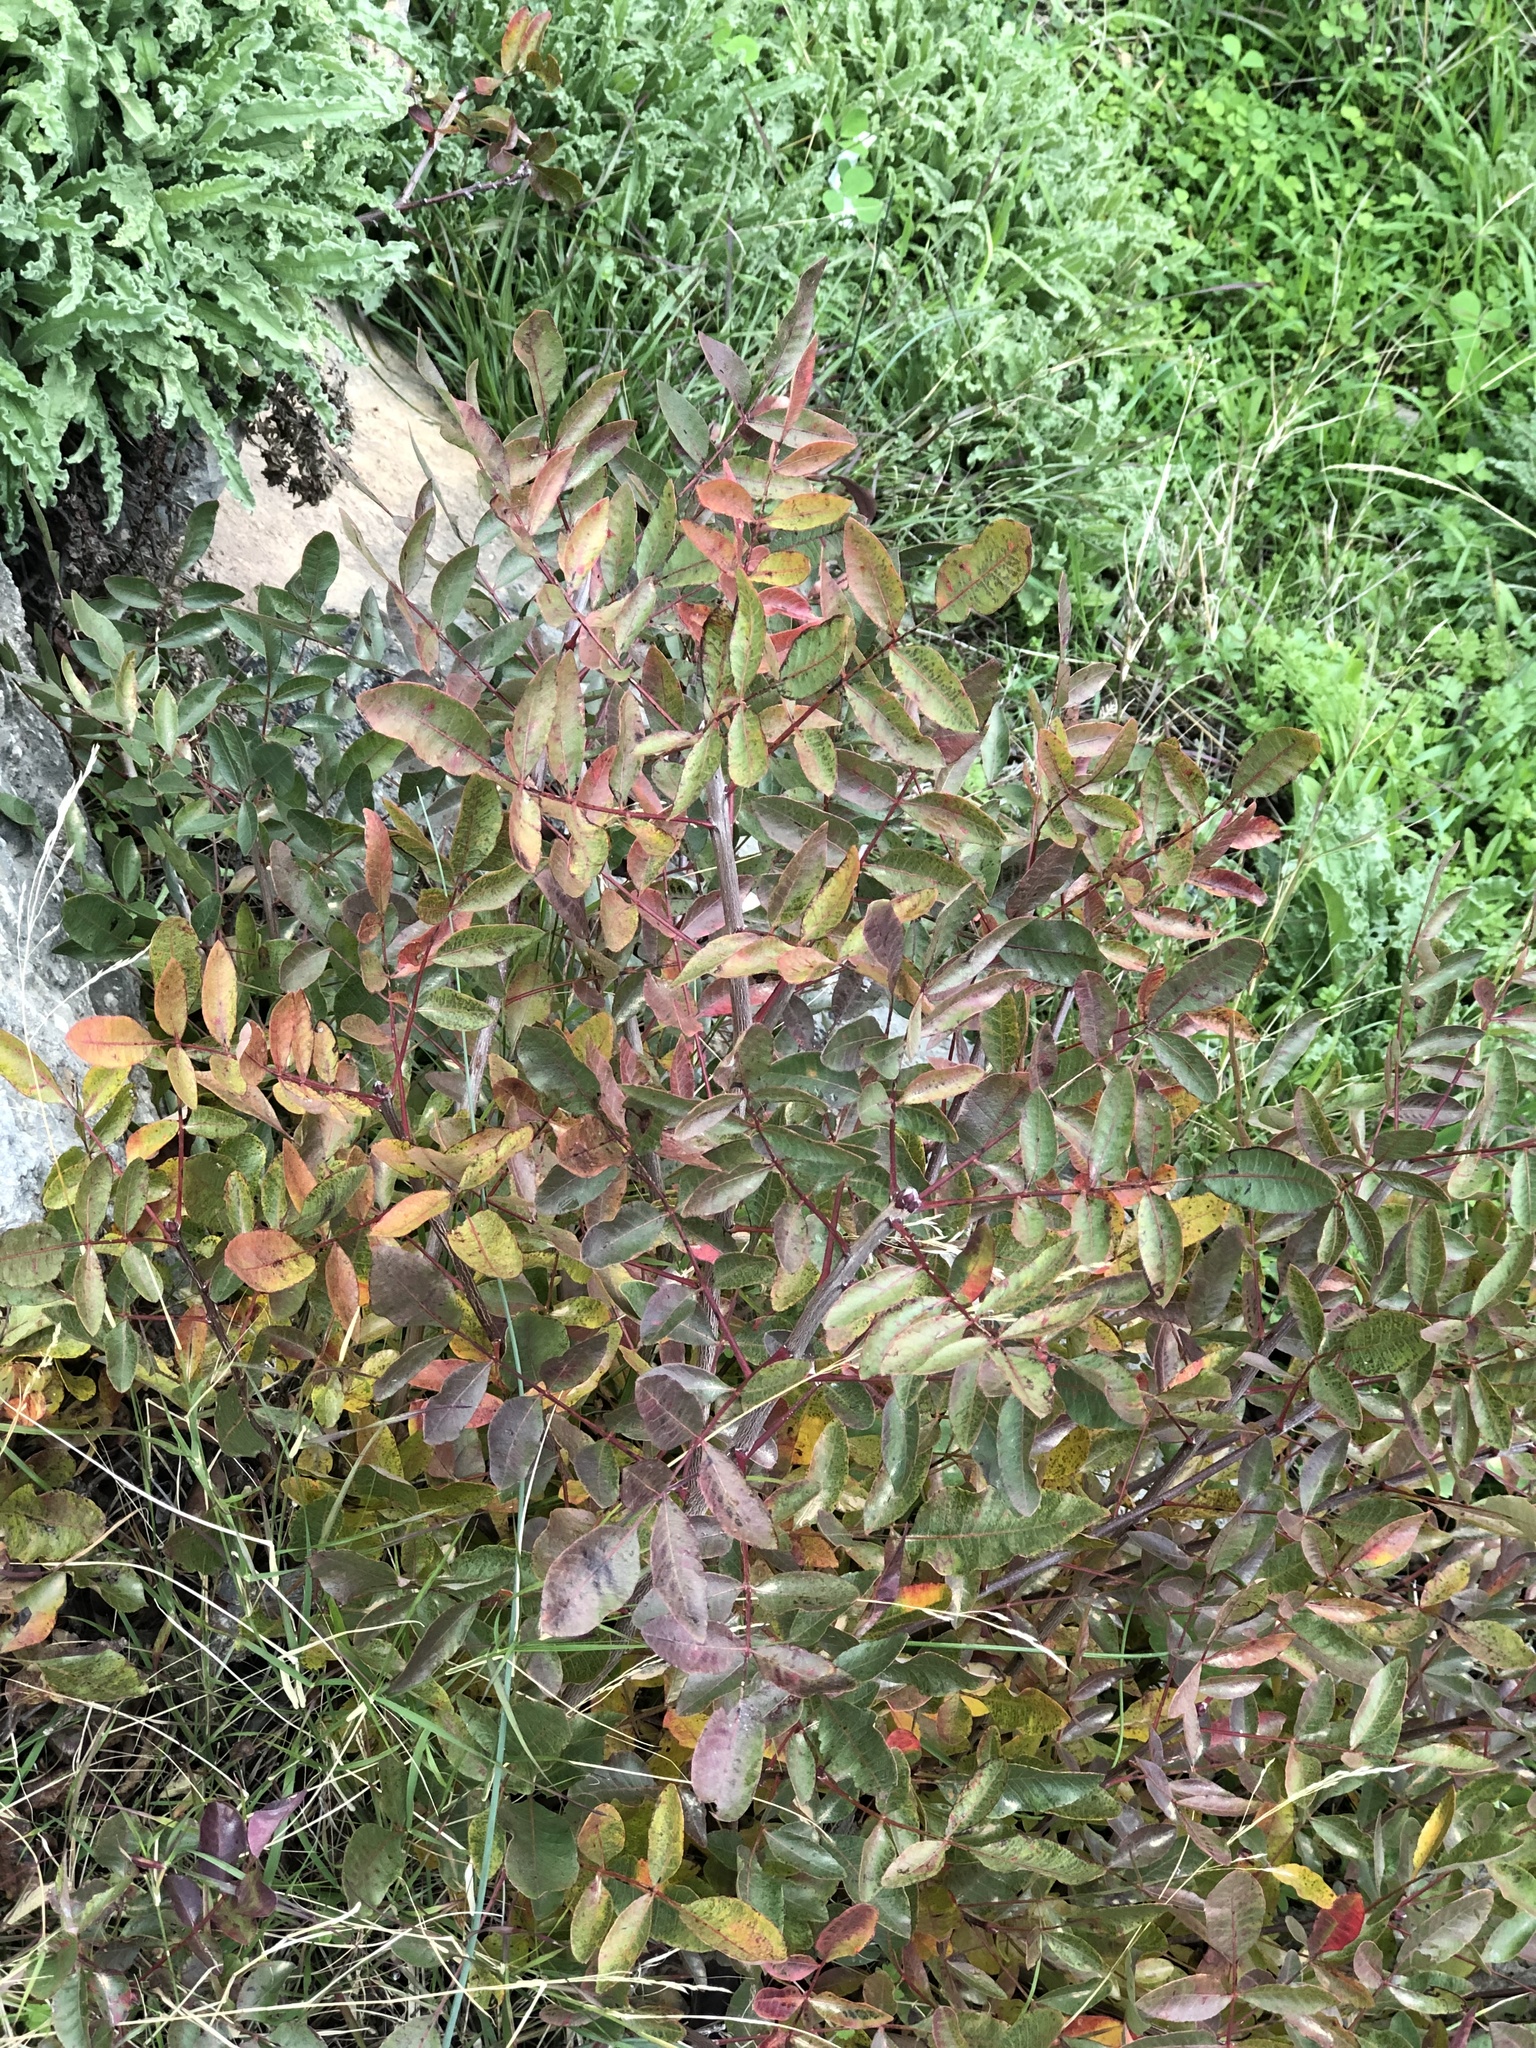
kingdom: Plantae
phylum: Tracheophyta
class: Magnoliopsida
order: Sapindales
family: Anacardiaceae
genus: Pistacia
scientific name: Pistacia terebinthus
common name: Terebinth
